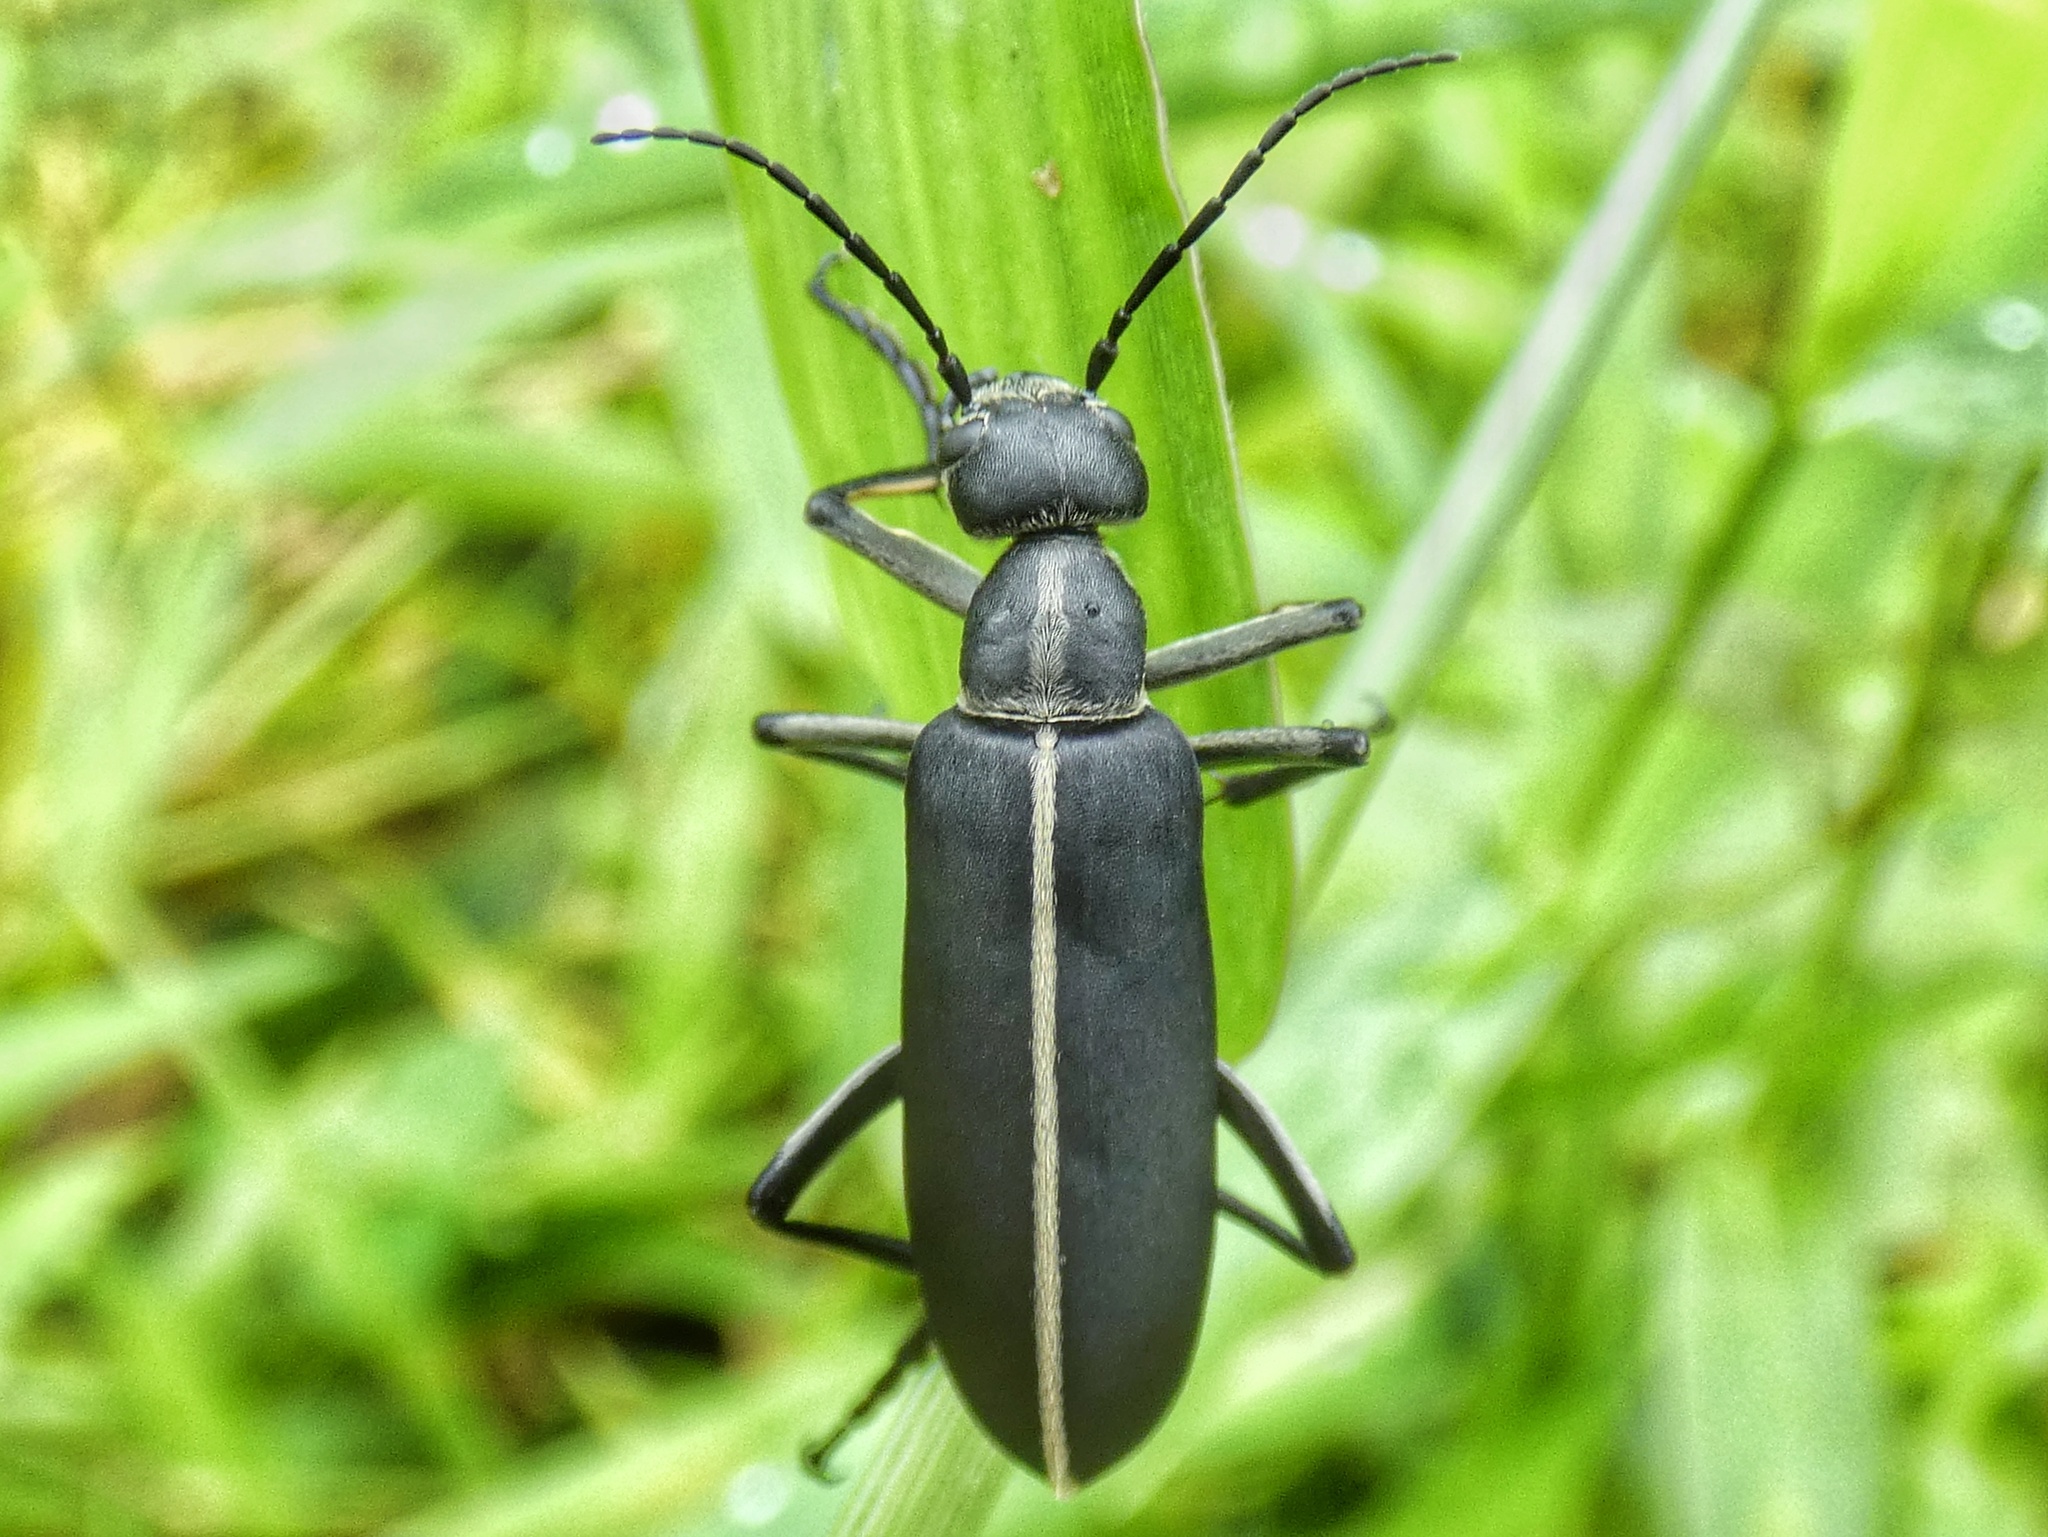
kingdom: Animalia
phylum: Arthropoda
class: Insecta
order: Coleoptera
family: Meloidae
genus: Epicauta
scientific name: Epicauta major
